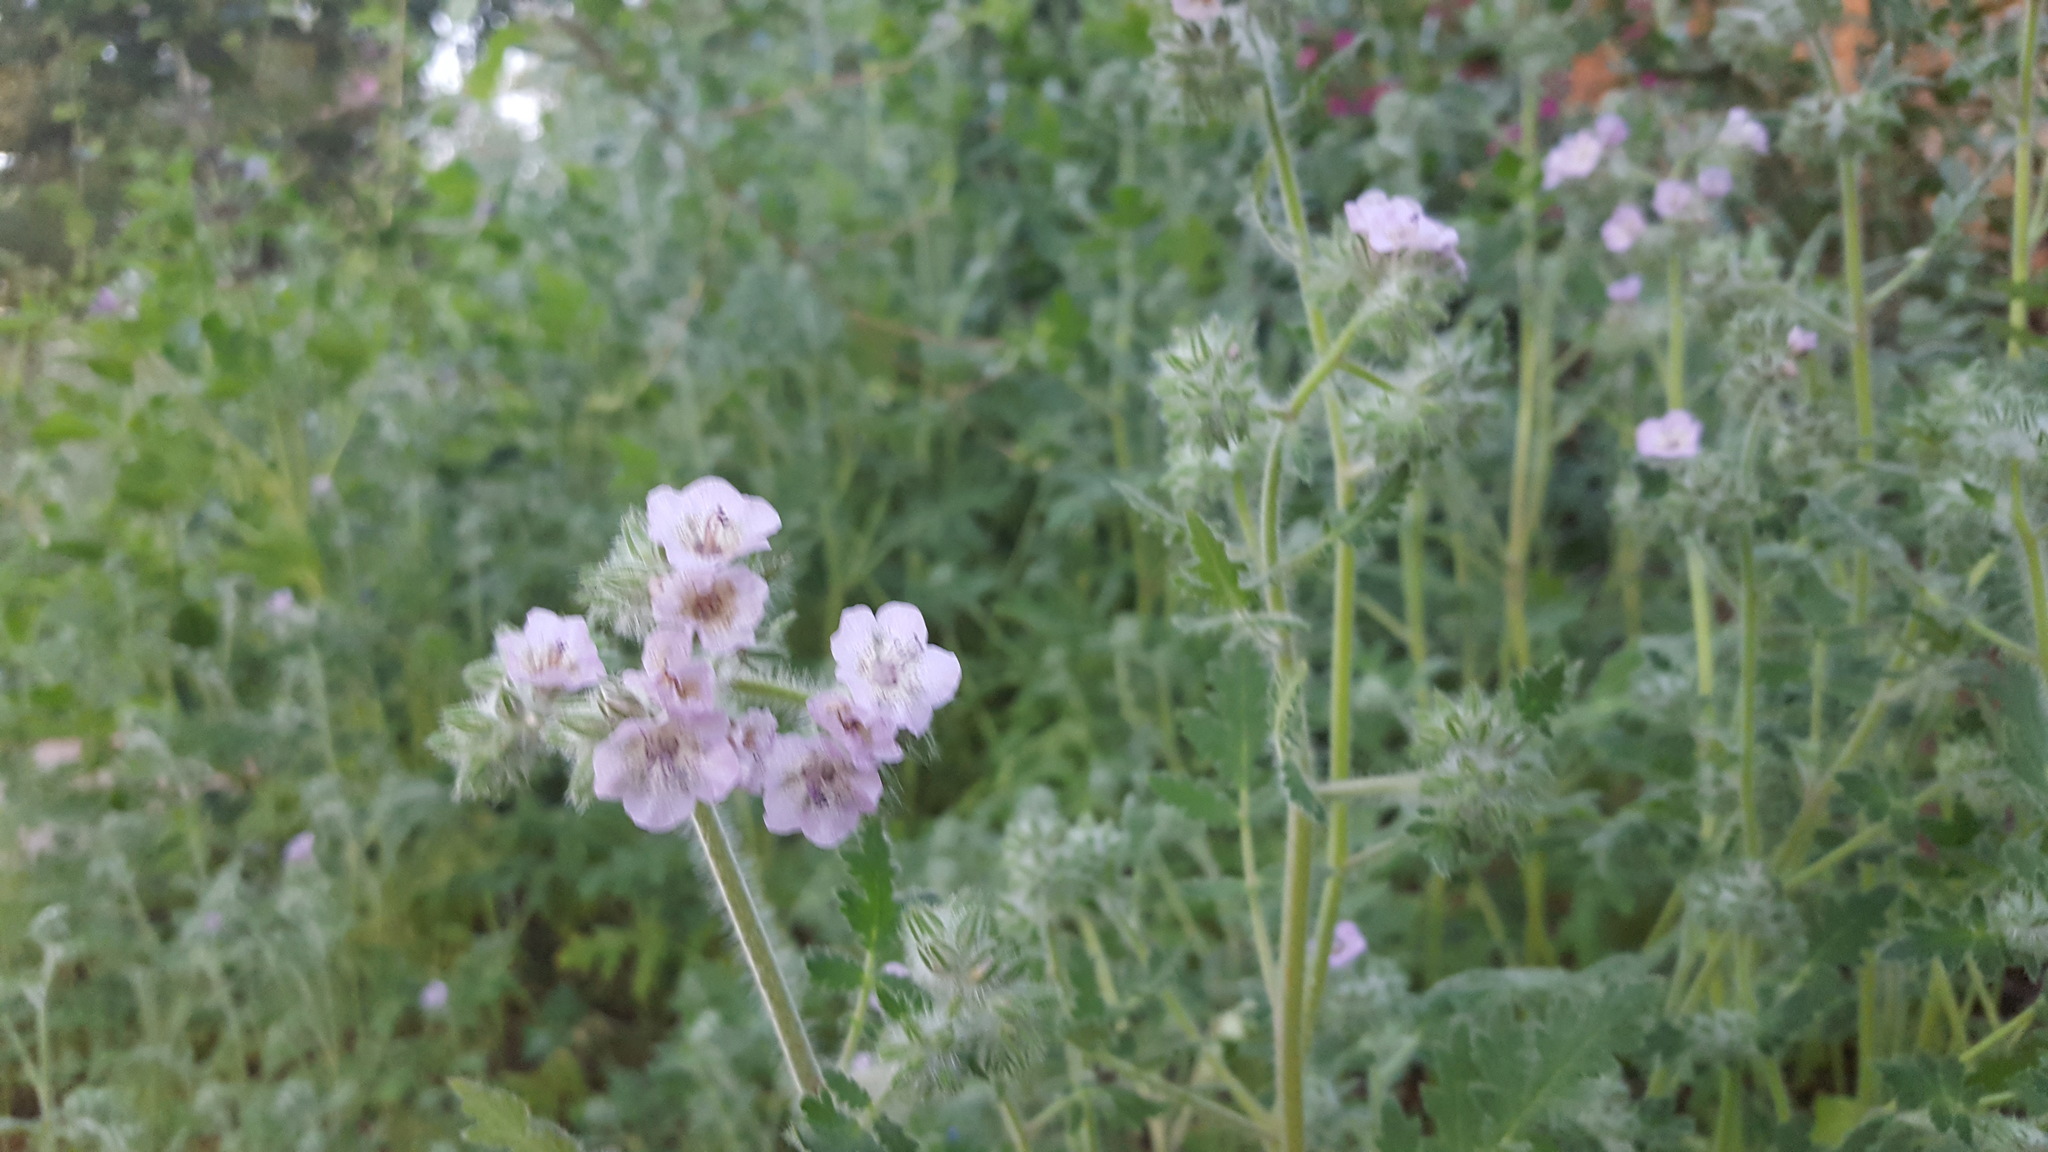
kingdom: Plantae
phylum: Tracheophyta
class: Magnoliopsida
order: Boraginales
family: Hydrophyllaceae
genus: Phacelia
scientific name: Phacelia cicutaria
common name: Caterpillar phacelia
